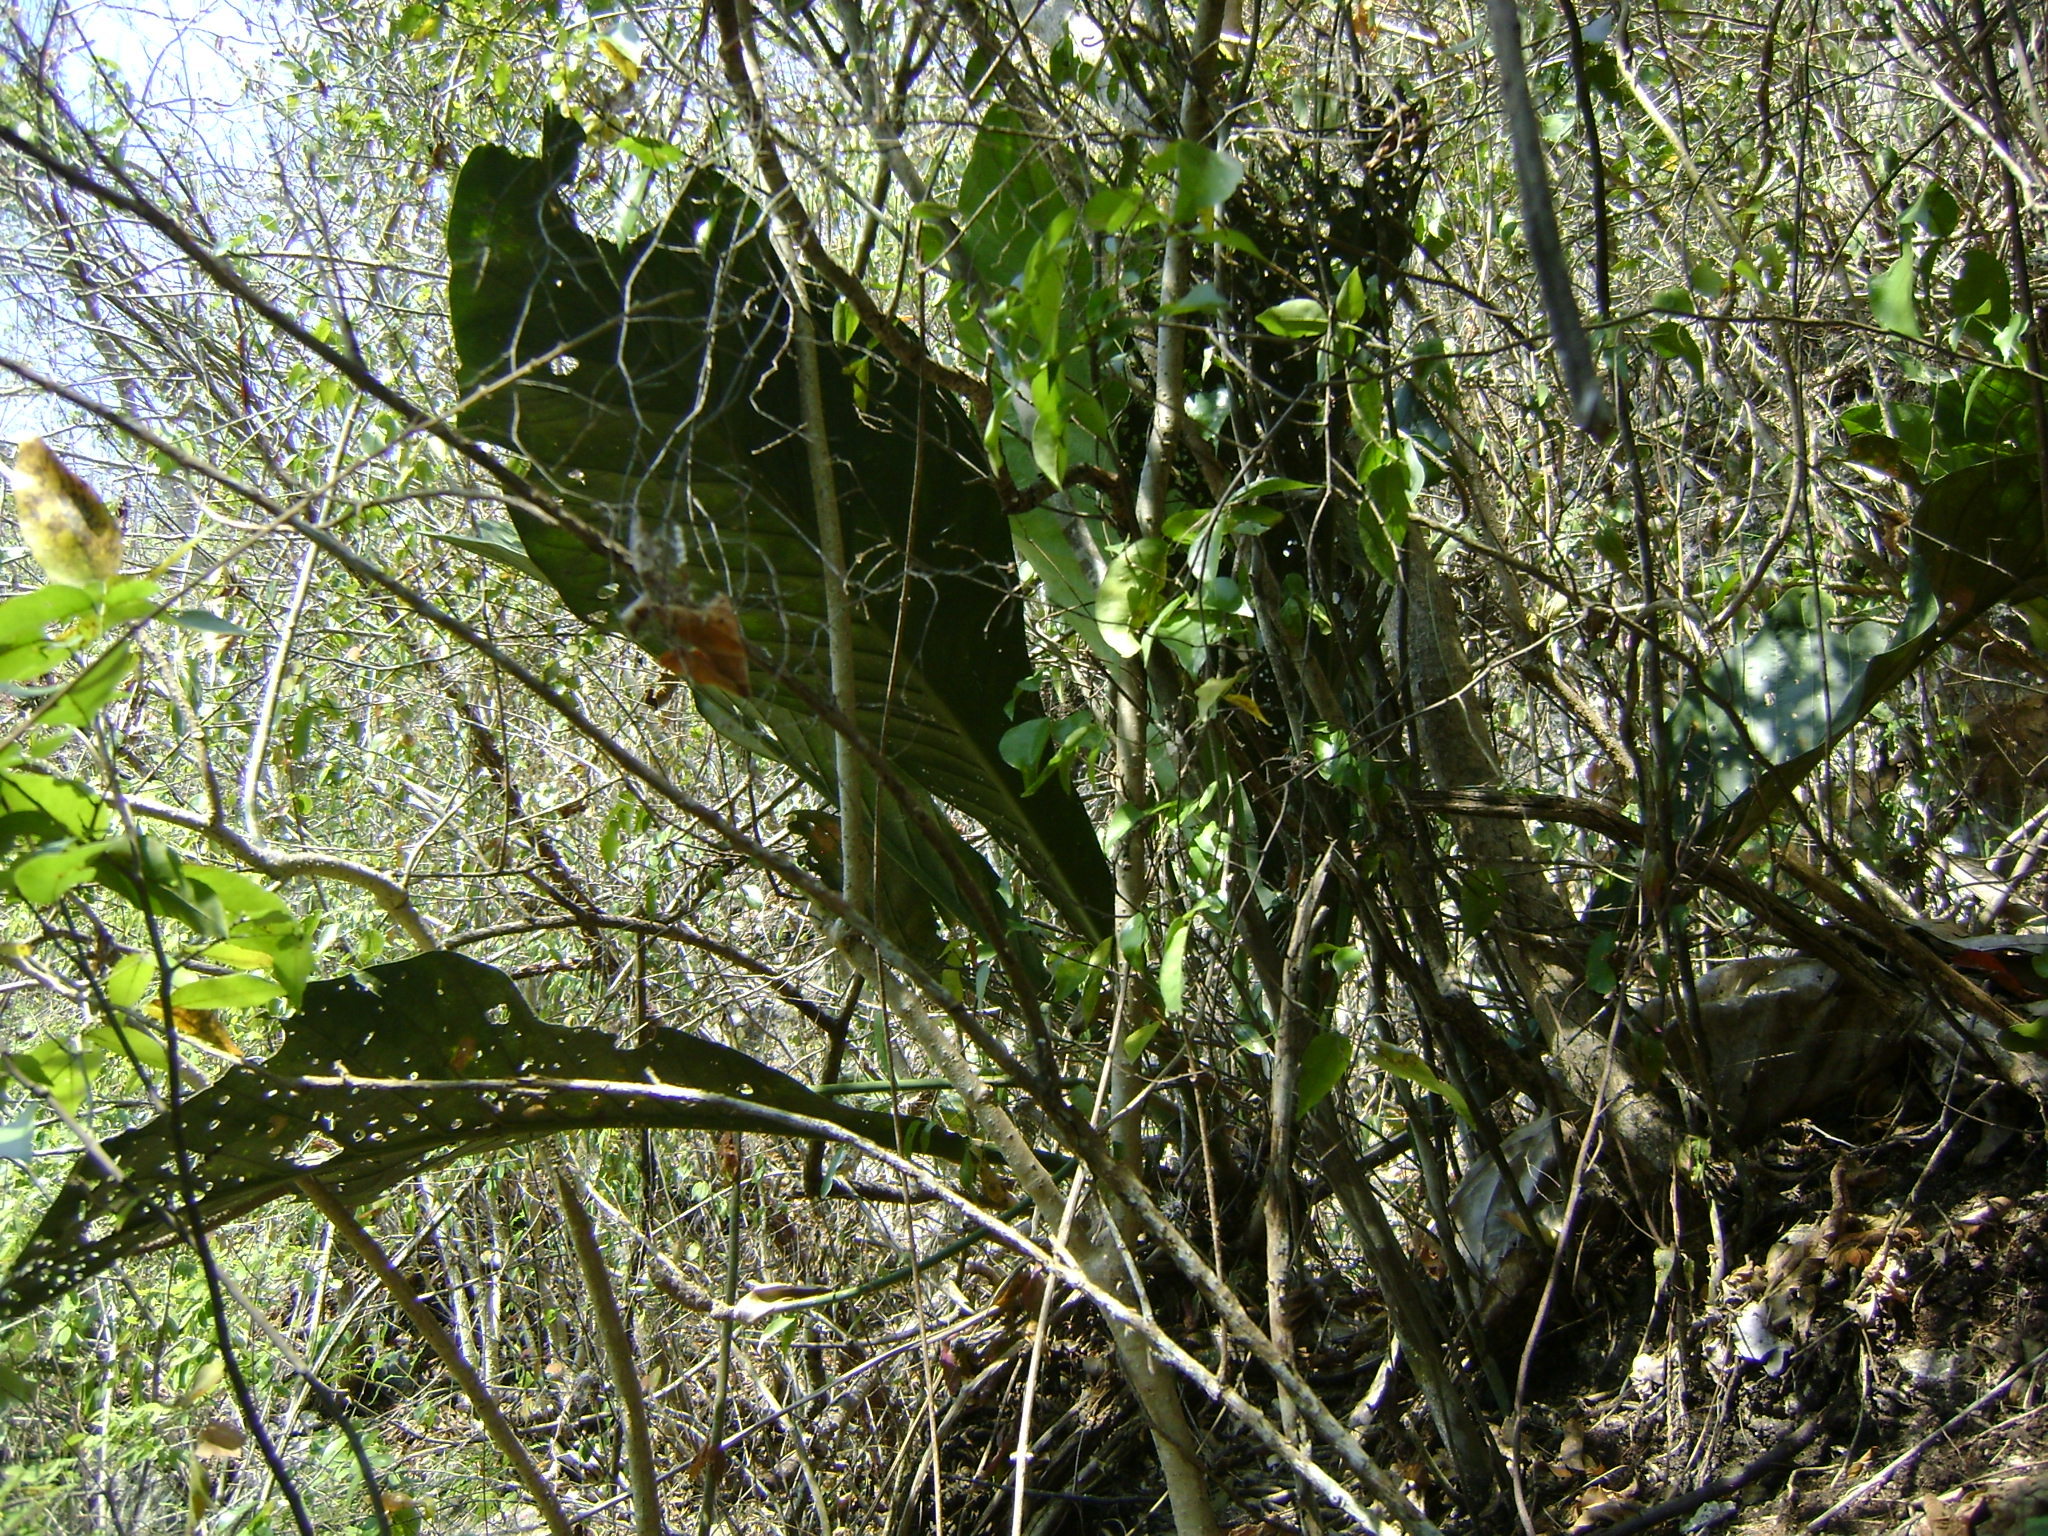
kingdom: Plantae
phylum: Tracheophyta
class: Liliopsida
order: Alismatales
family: Araceae
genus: Anthurium
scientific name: Anthurium schlechtendalii
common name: Laceleaf
